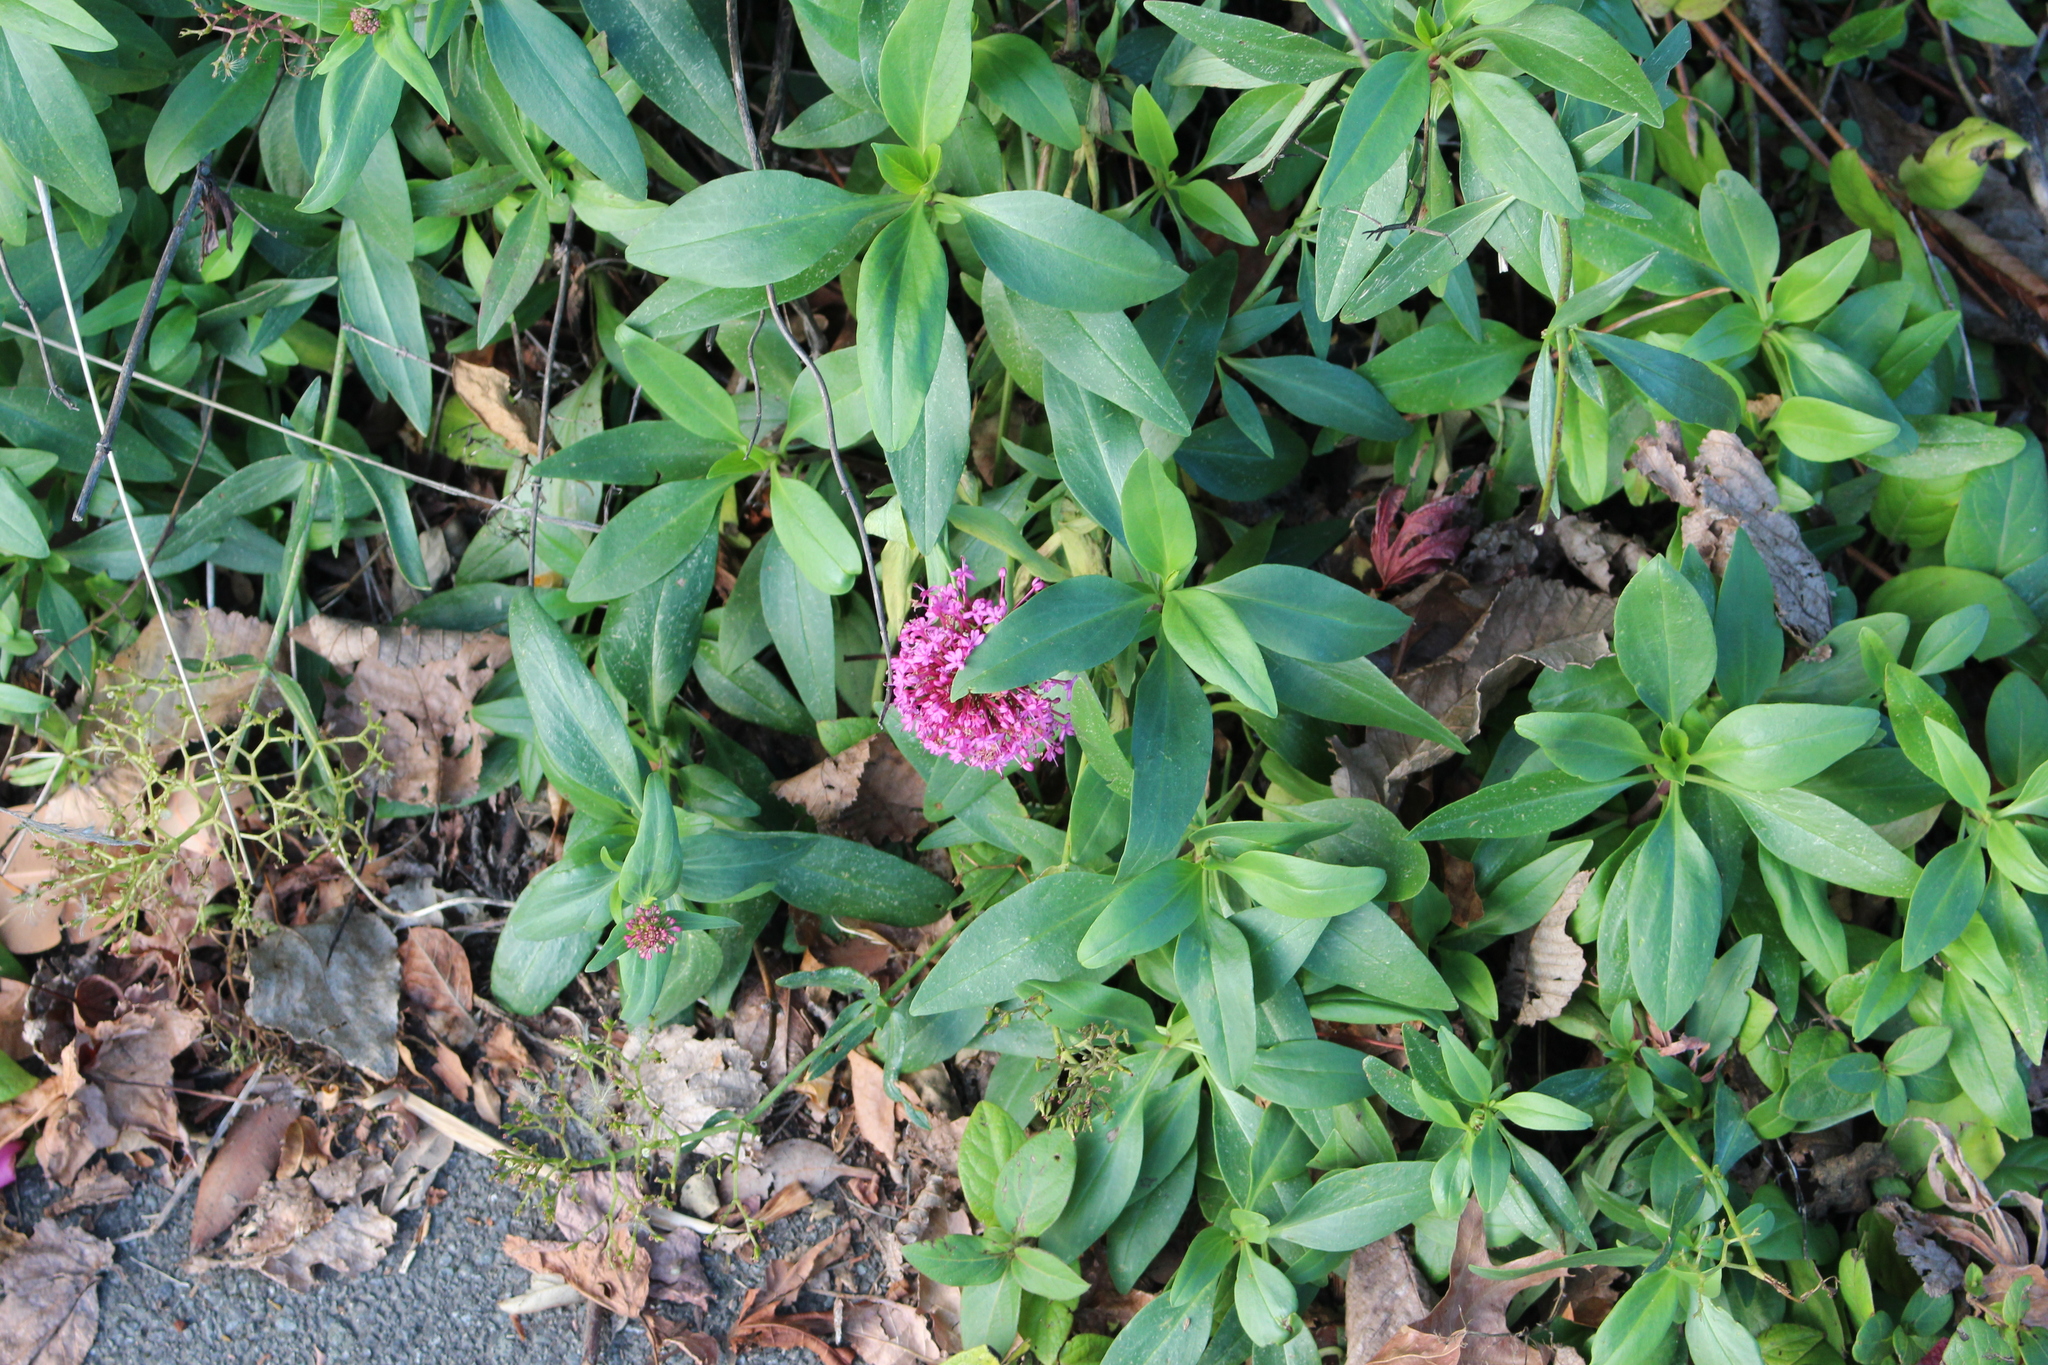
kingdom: Plantae
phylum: Tracheophyta
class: Magnoliopsida
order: Dipsacales
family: Caprifoliaceae
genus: Centranthus
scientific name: Centranthus ruber
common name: Red valerian
